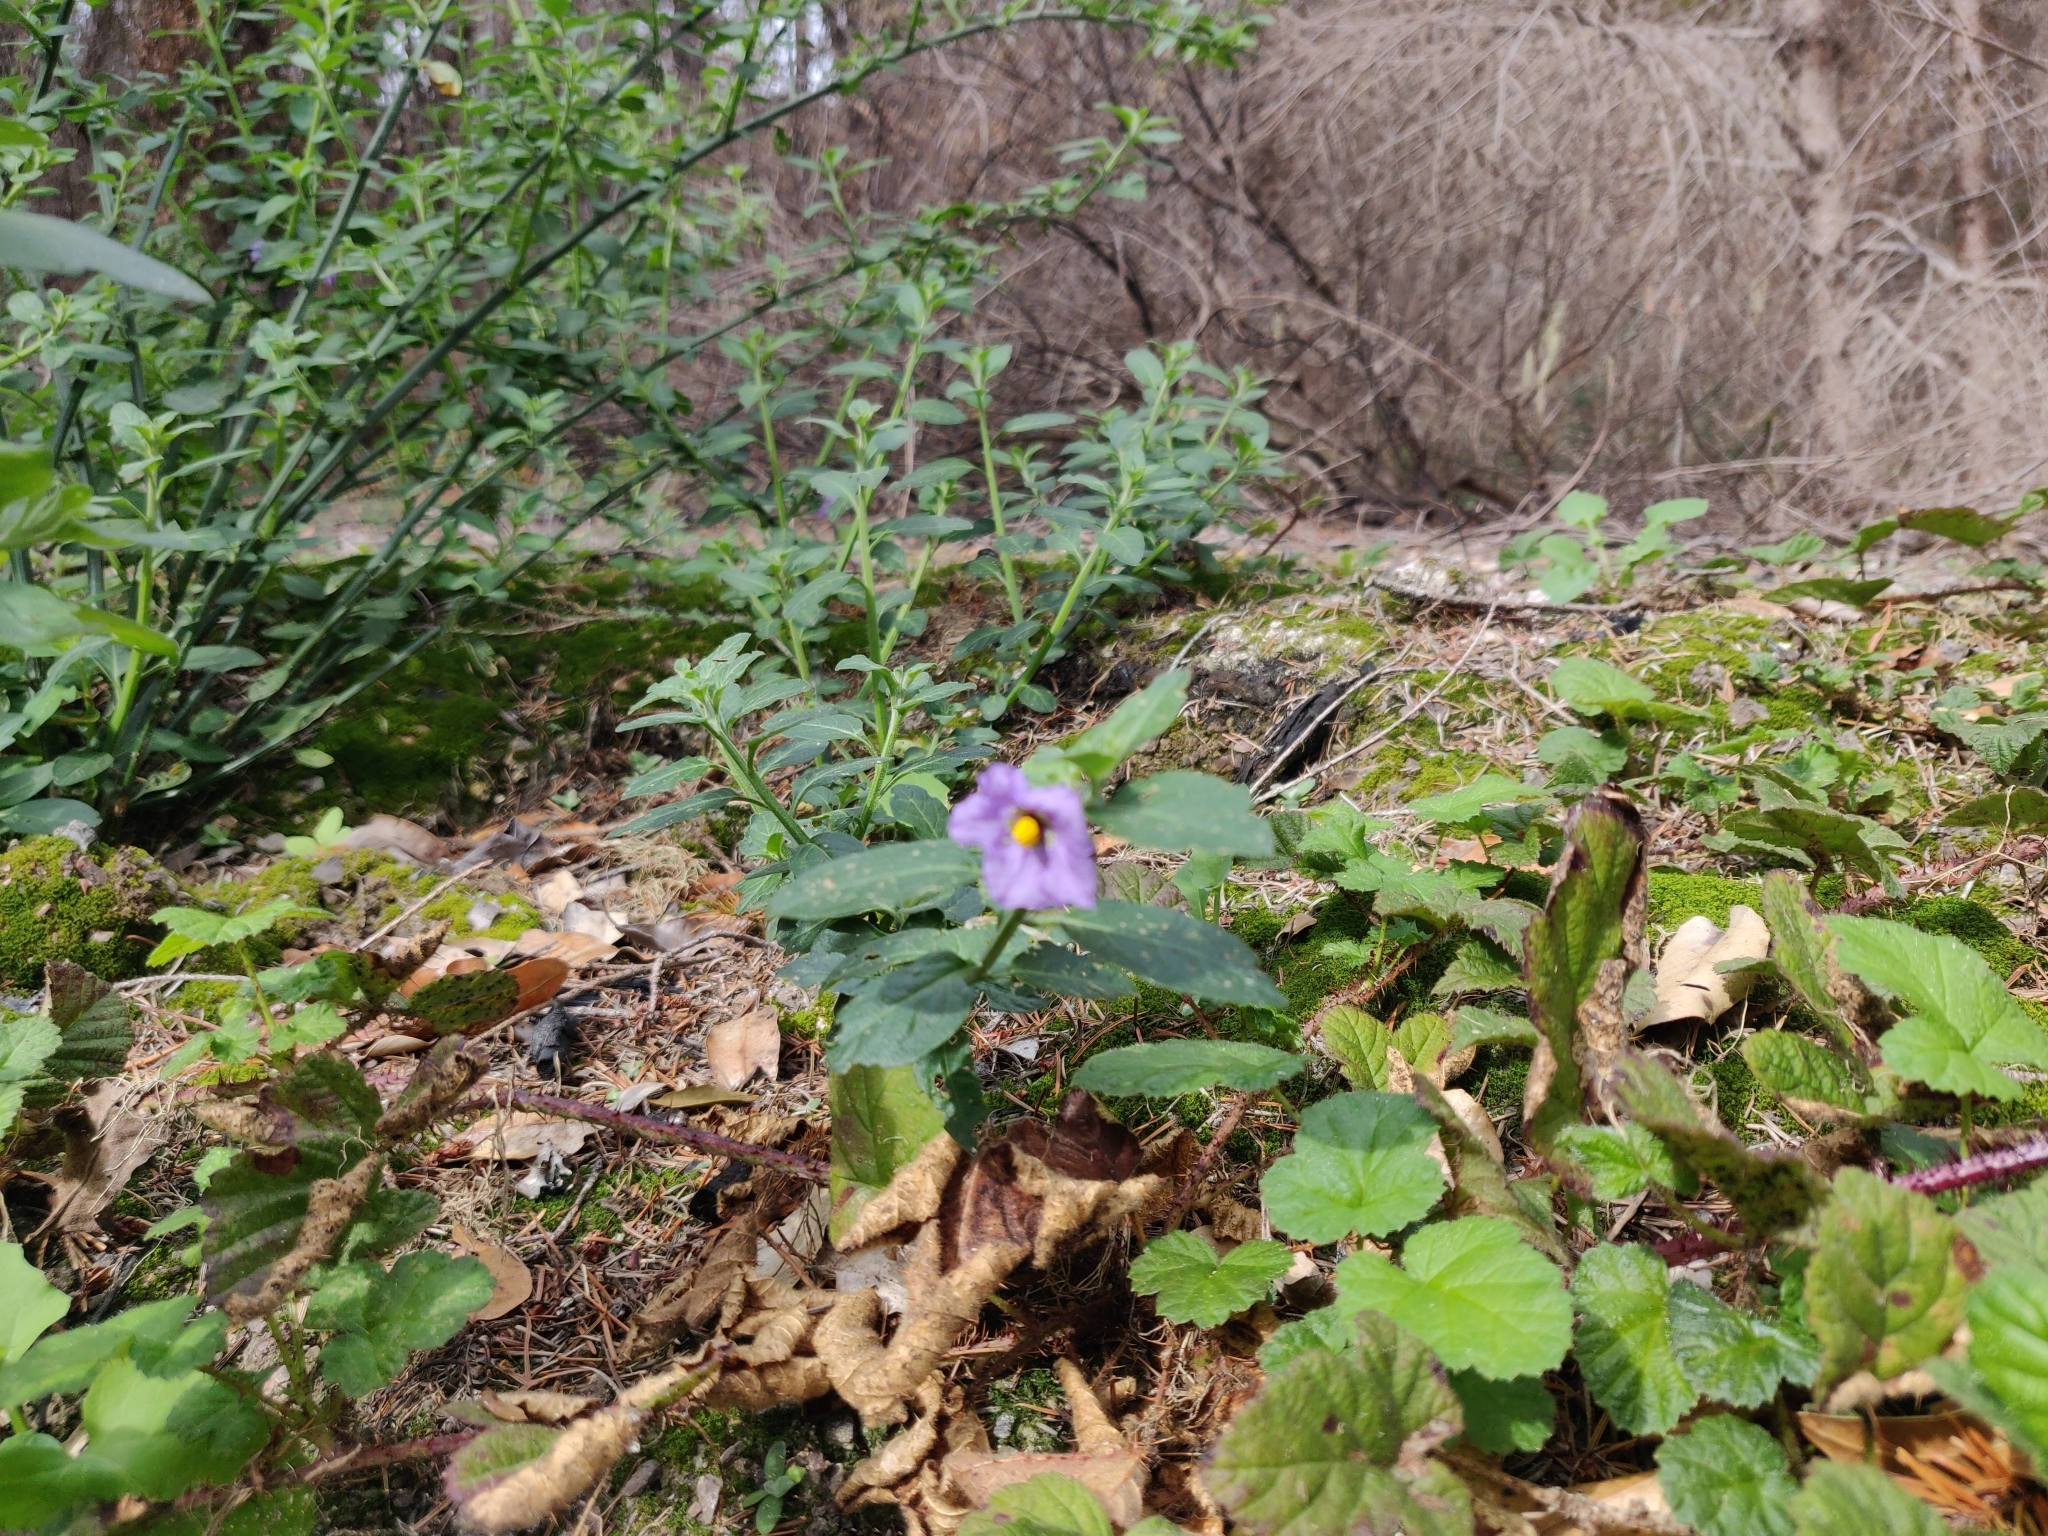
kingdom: Plantae
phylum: Tracheophyta
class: Magnoliopsida
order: Solanales
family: Solanaceae
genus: Solanum
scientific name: Solanum umbelliferum
